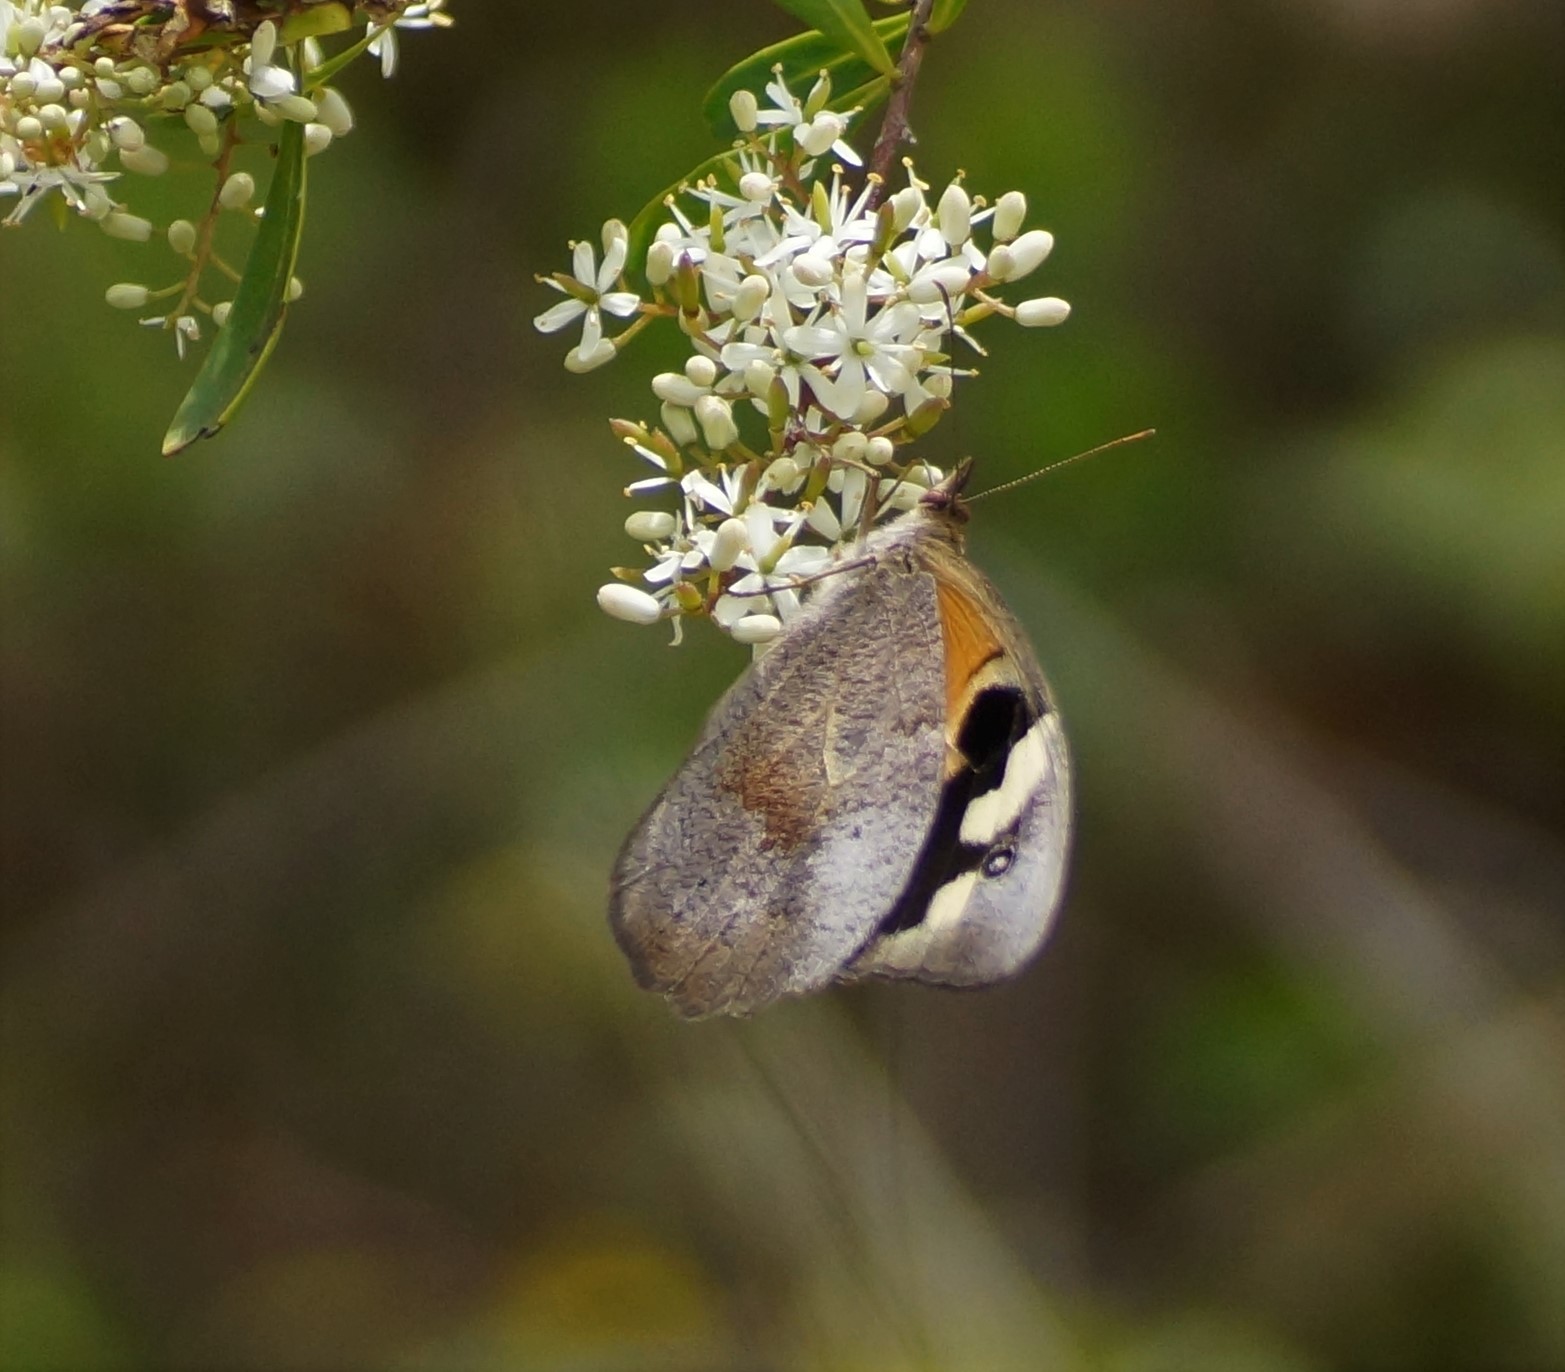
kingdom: Animalia
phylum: Arthropoda
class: Insecta
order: Lepidoptera
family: Nymphalidae
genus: Heteronympha
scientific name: Heteronympha merope
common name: Common brown
